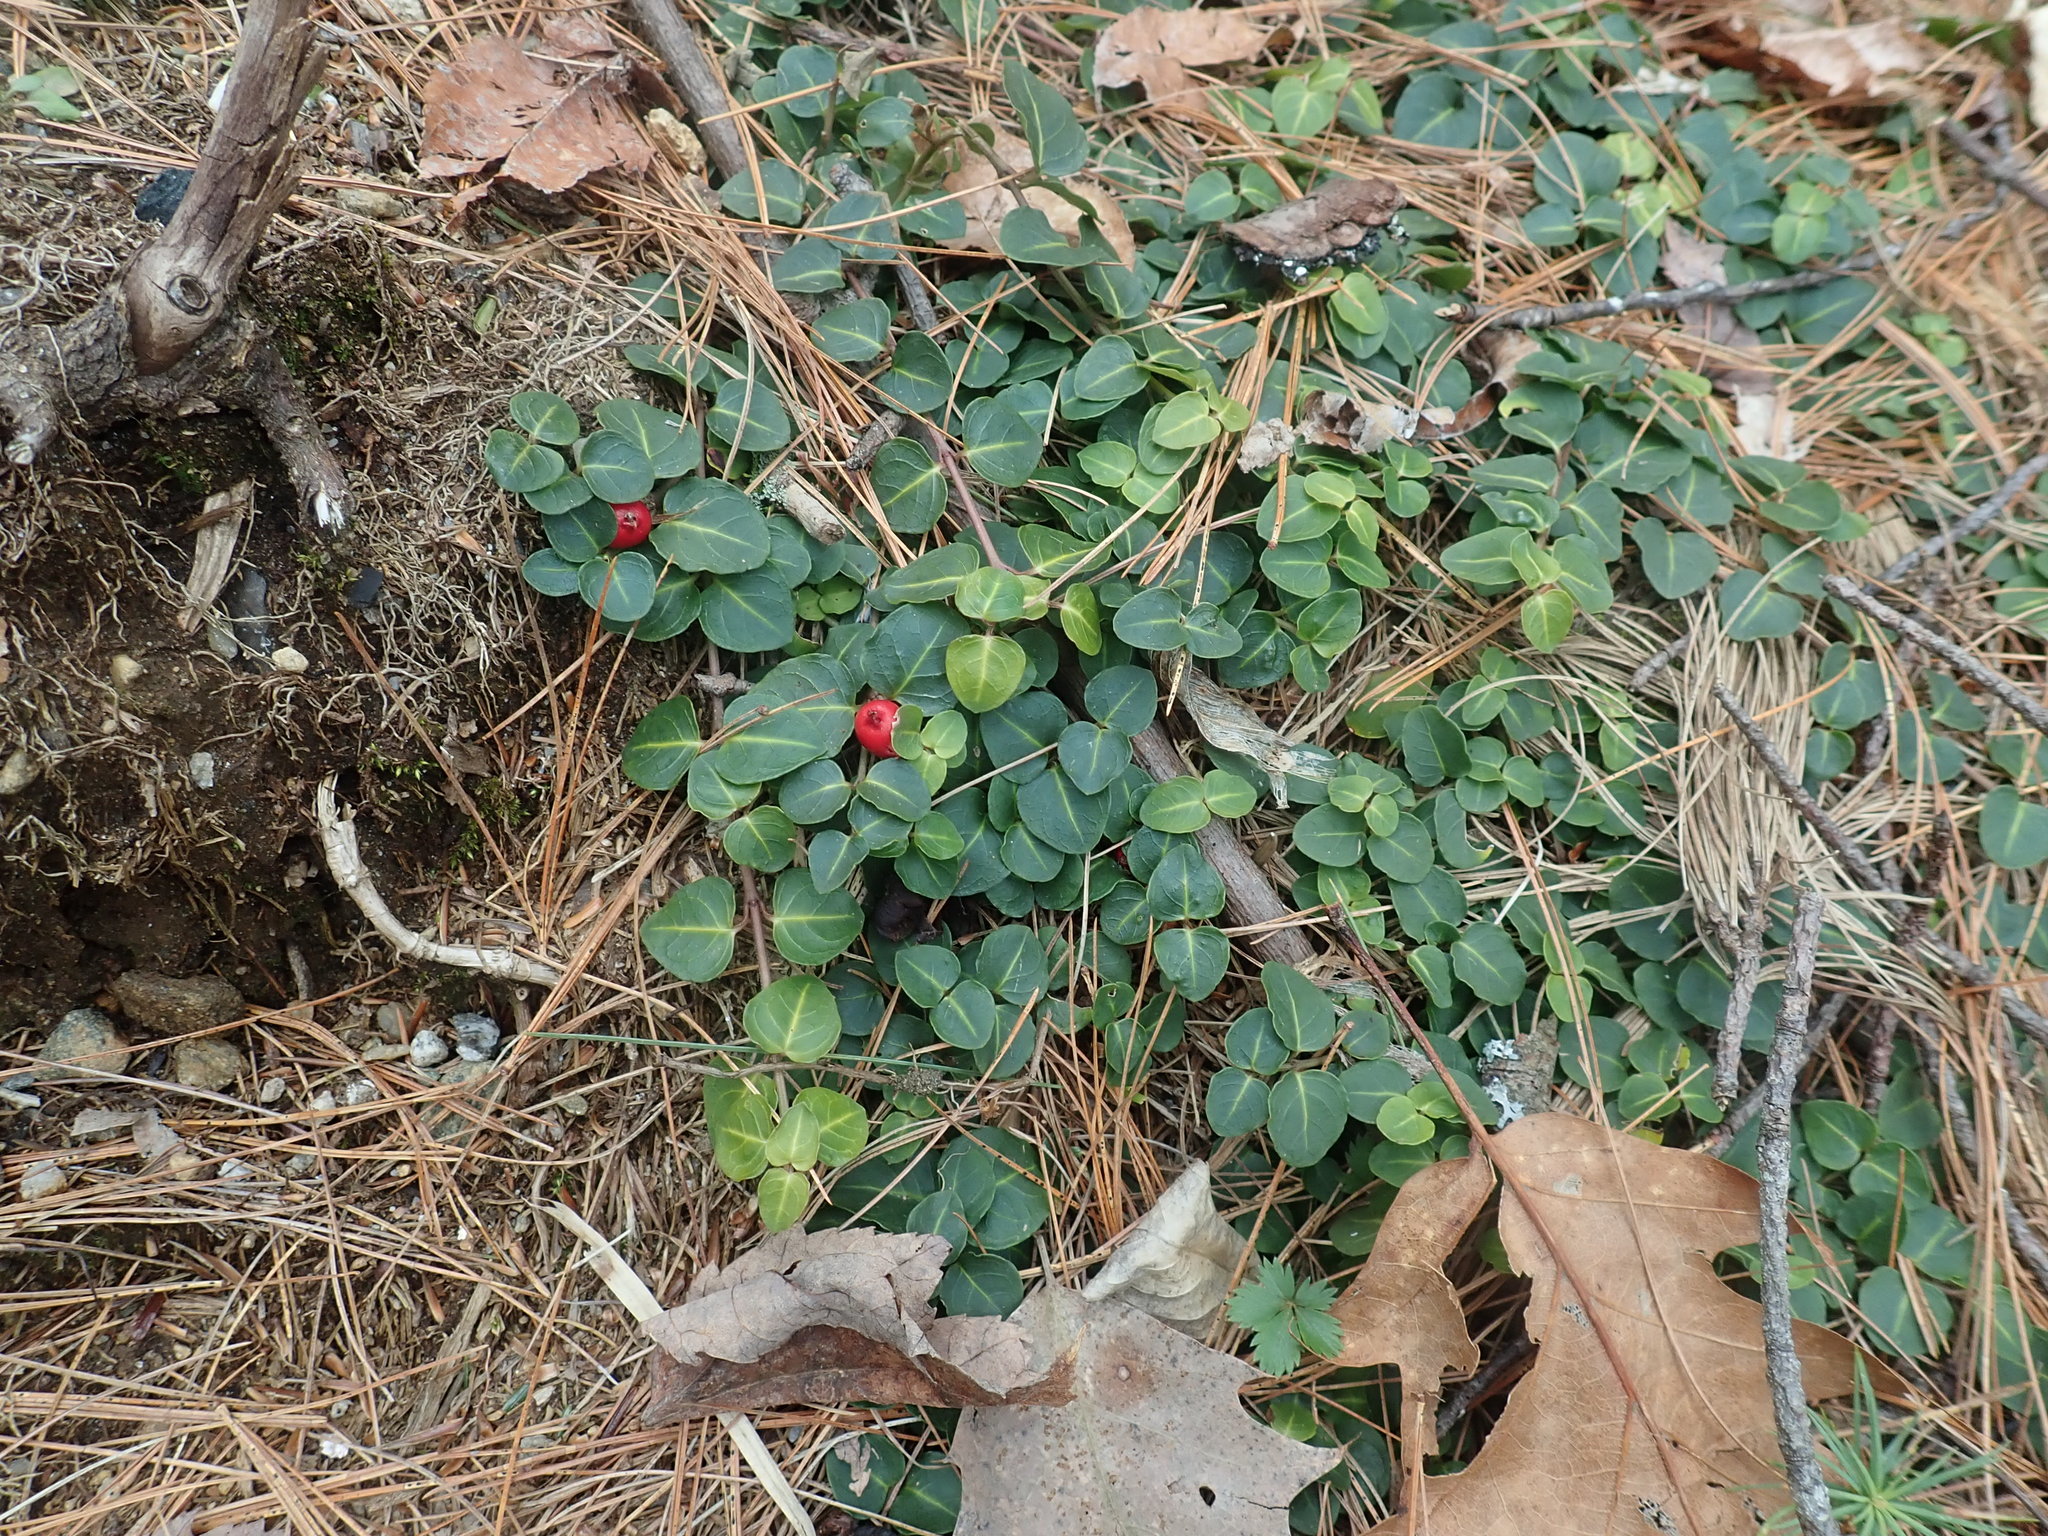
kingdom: Plantae
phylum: Tracheophyta
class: Magnoliopsida
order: Gentianales
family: Rubiaceae
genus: Mitchella
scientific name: Mitchella repens
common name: Partridge-berry
